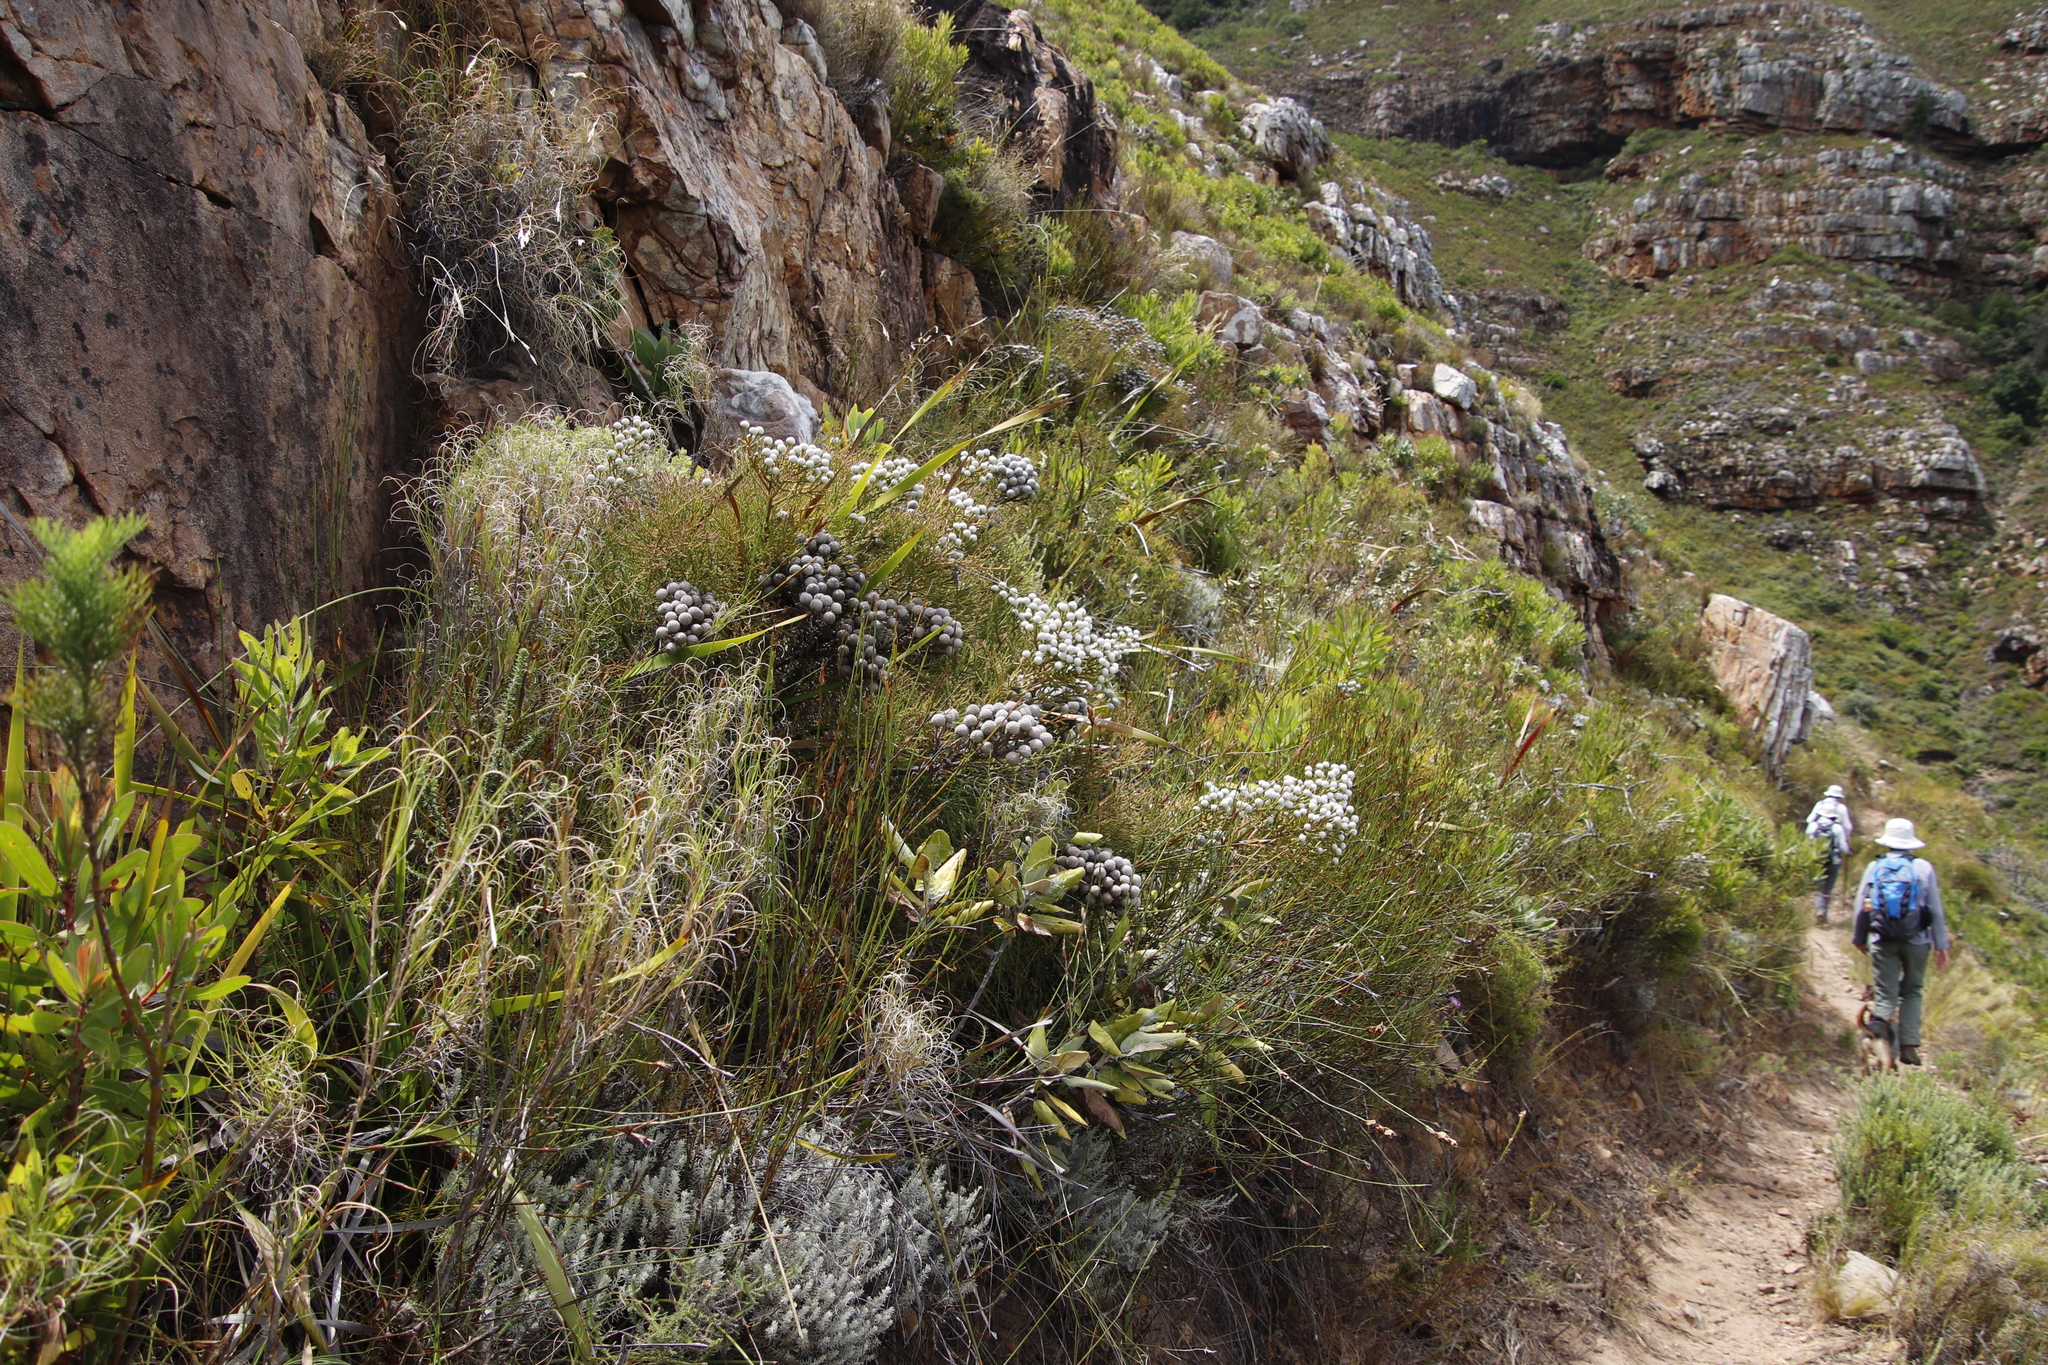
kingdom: Plantae
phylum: Tracheophyta
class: Magnoliopsida
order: Bruniales
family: Bruniaceae
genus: Brunia
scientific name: Brunia noduliflora
